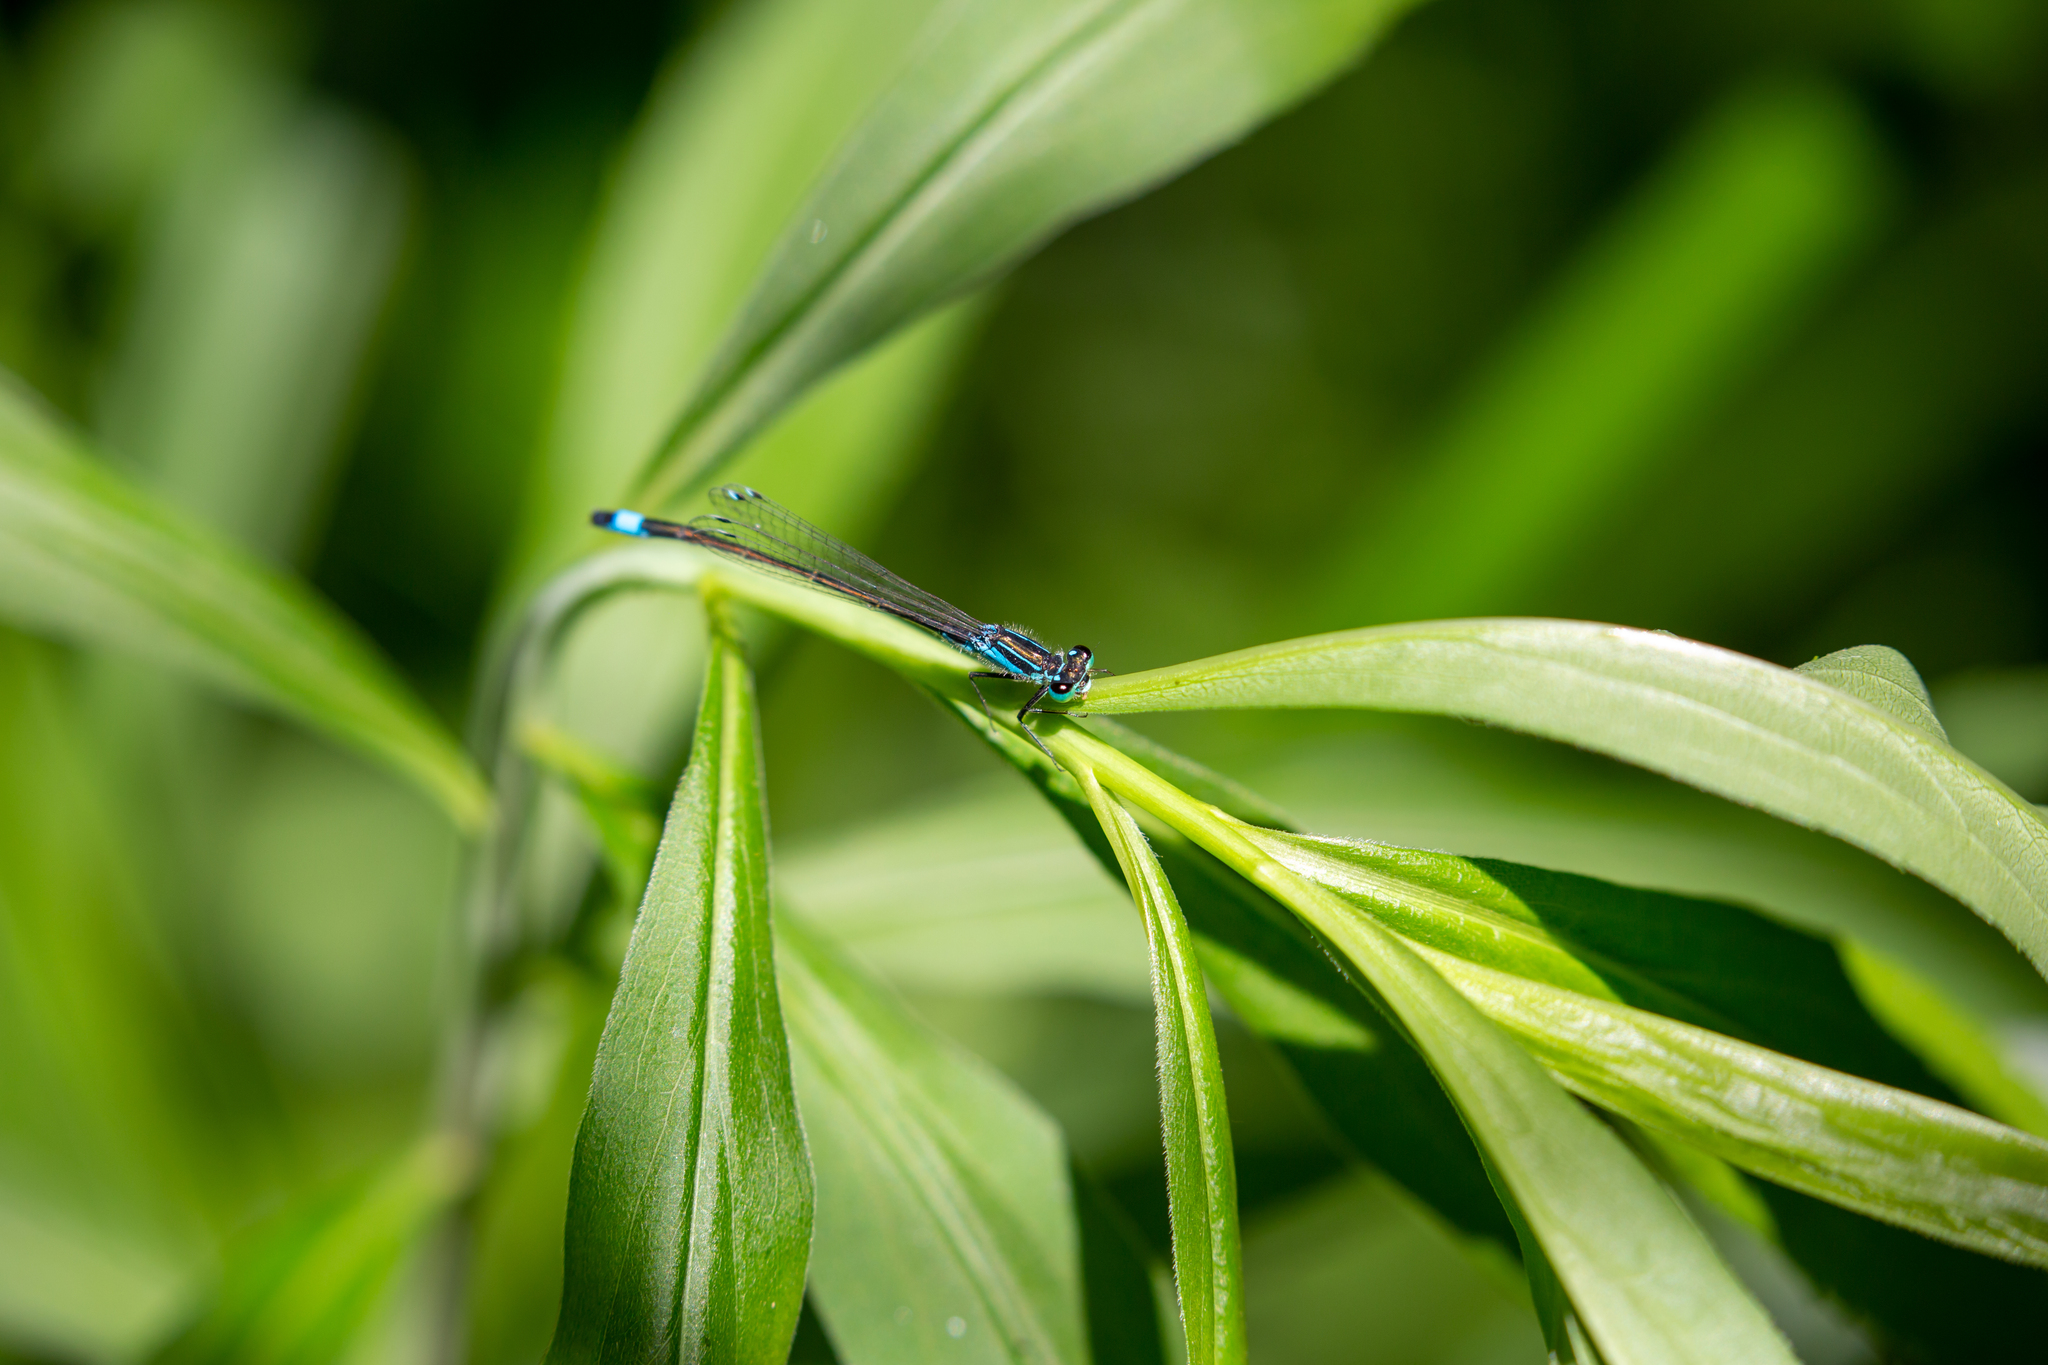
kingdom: Animalia
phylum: Arthropoda
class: Insecta
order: Odonata
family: Coenagrionidae
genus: Ischnura
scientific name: Ischnura elegans
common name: Blue-tailed damselfly
